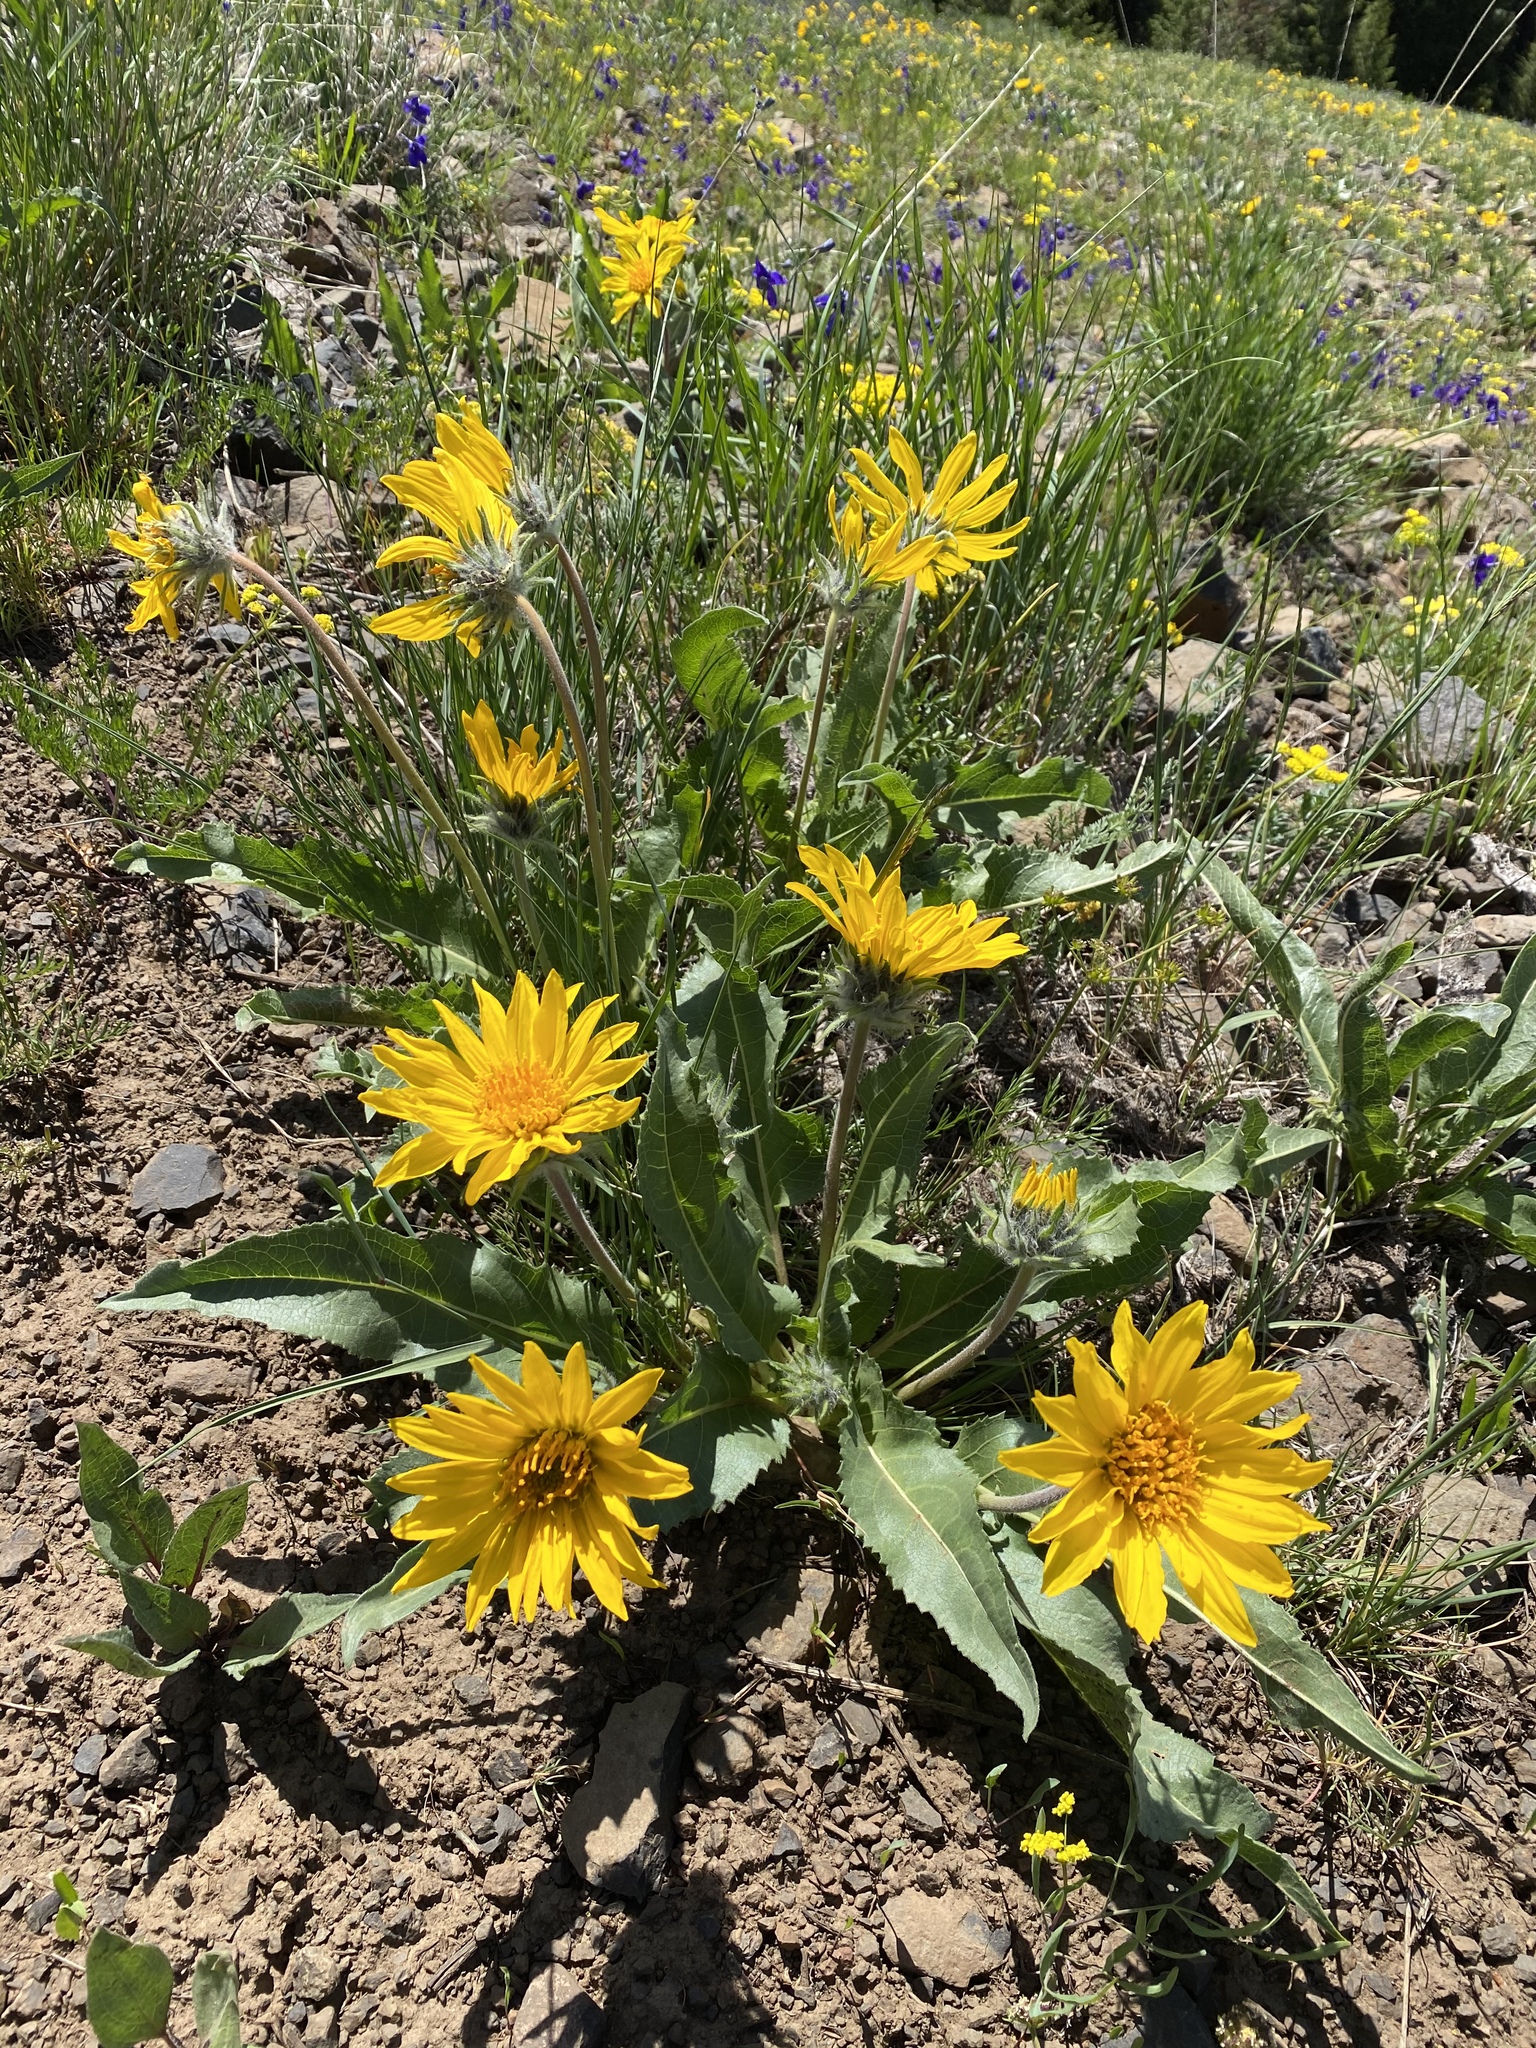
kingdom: Plantae
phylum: Tracheophyta
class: Magnoliopsida
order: Asterales
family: Asteraceae
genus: Balsamorhiza
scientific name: Balsamorhiza serrata
